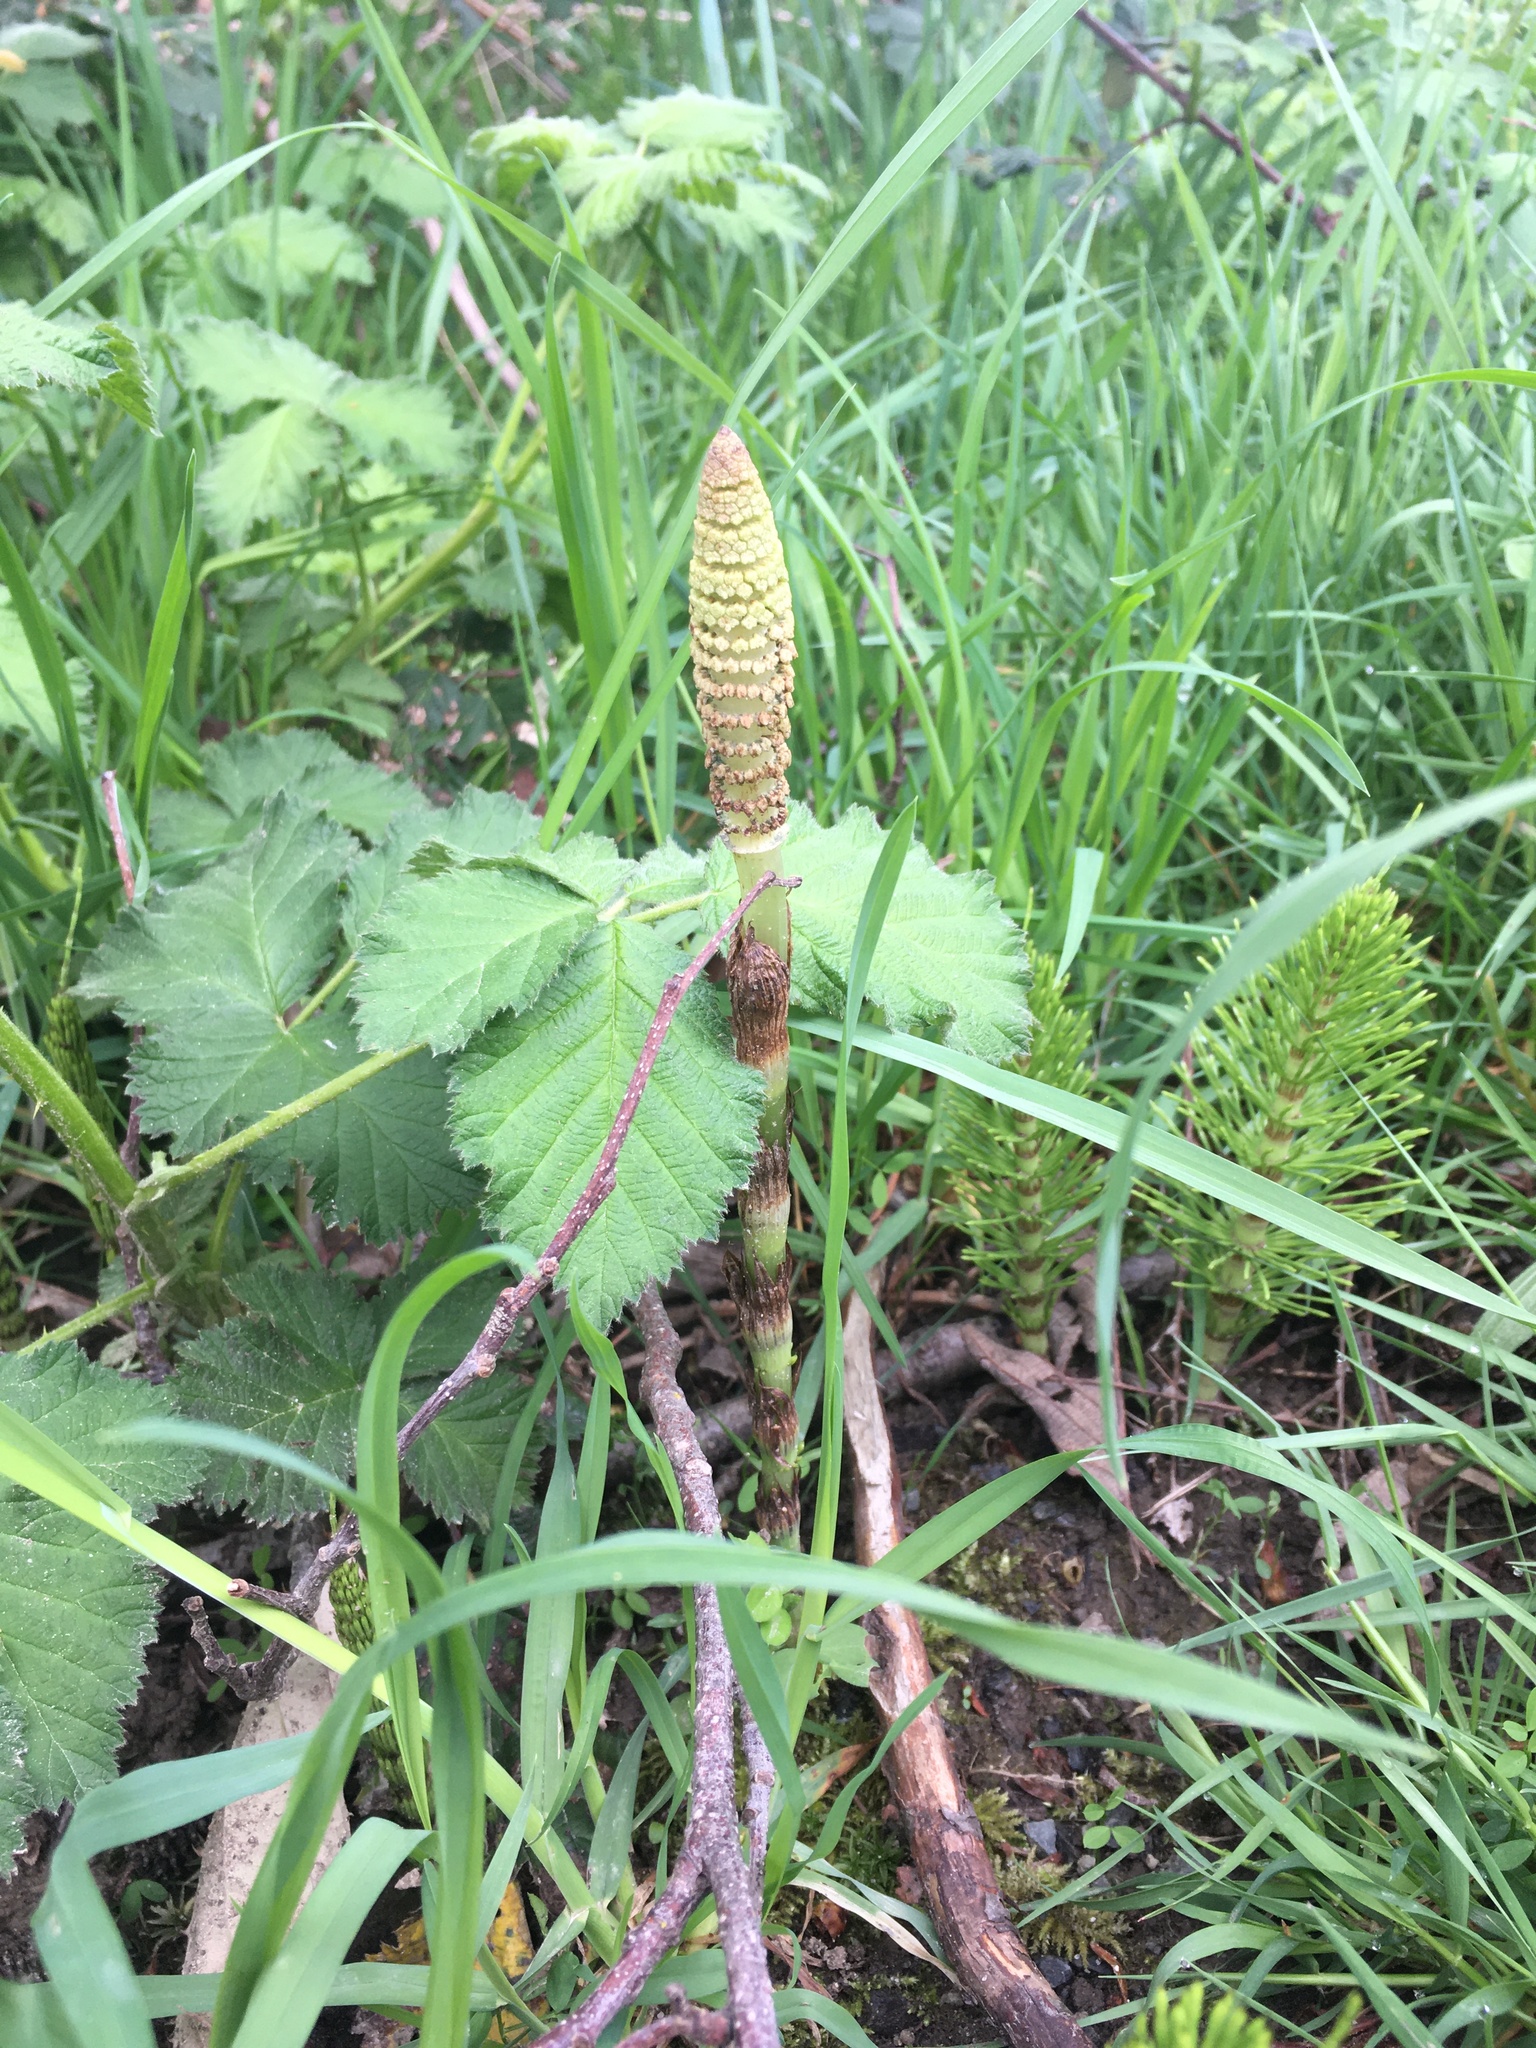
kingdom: Plantae
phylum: Tracheophyta
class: Polypodiopsida
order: Equisetales
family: Equisetaceae
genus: Equisetum
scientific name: Equisetum braunii
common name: Braun's horsetail
